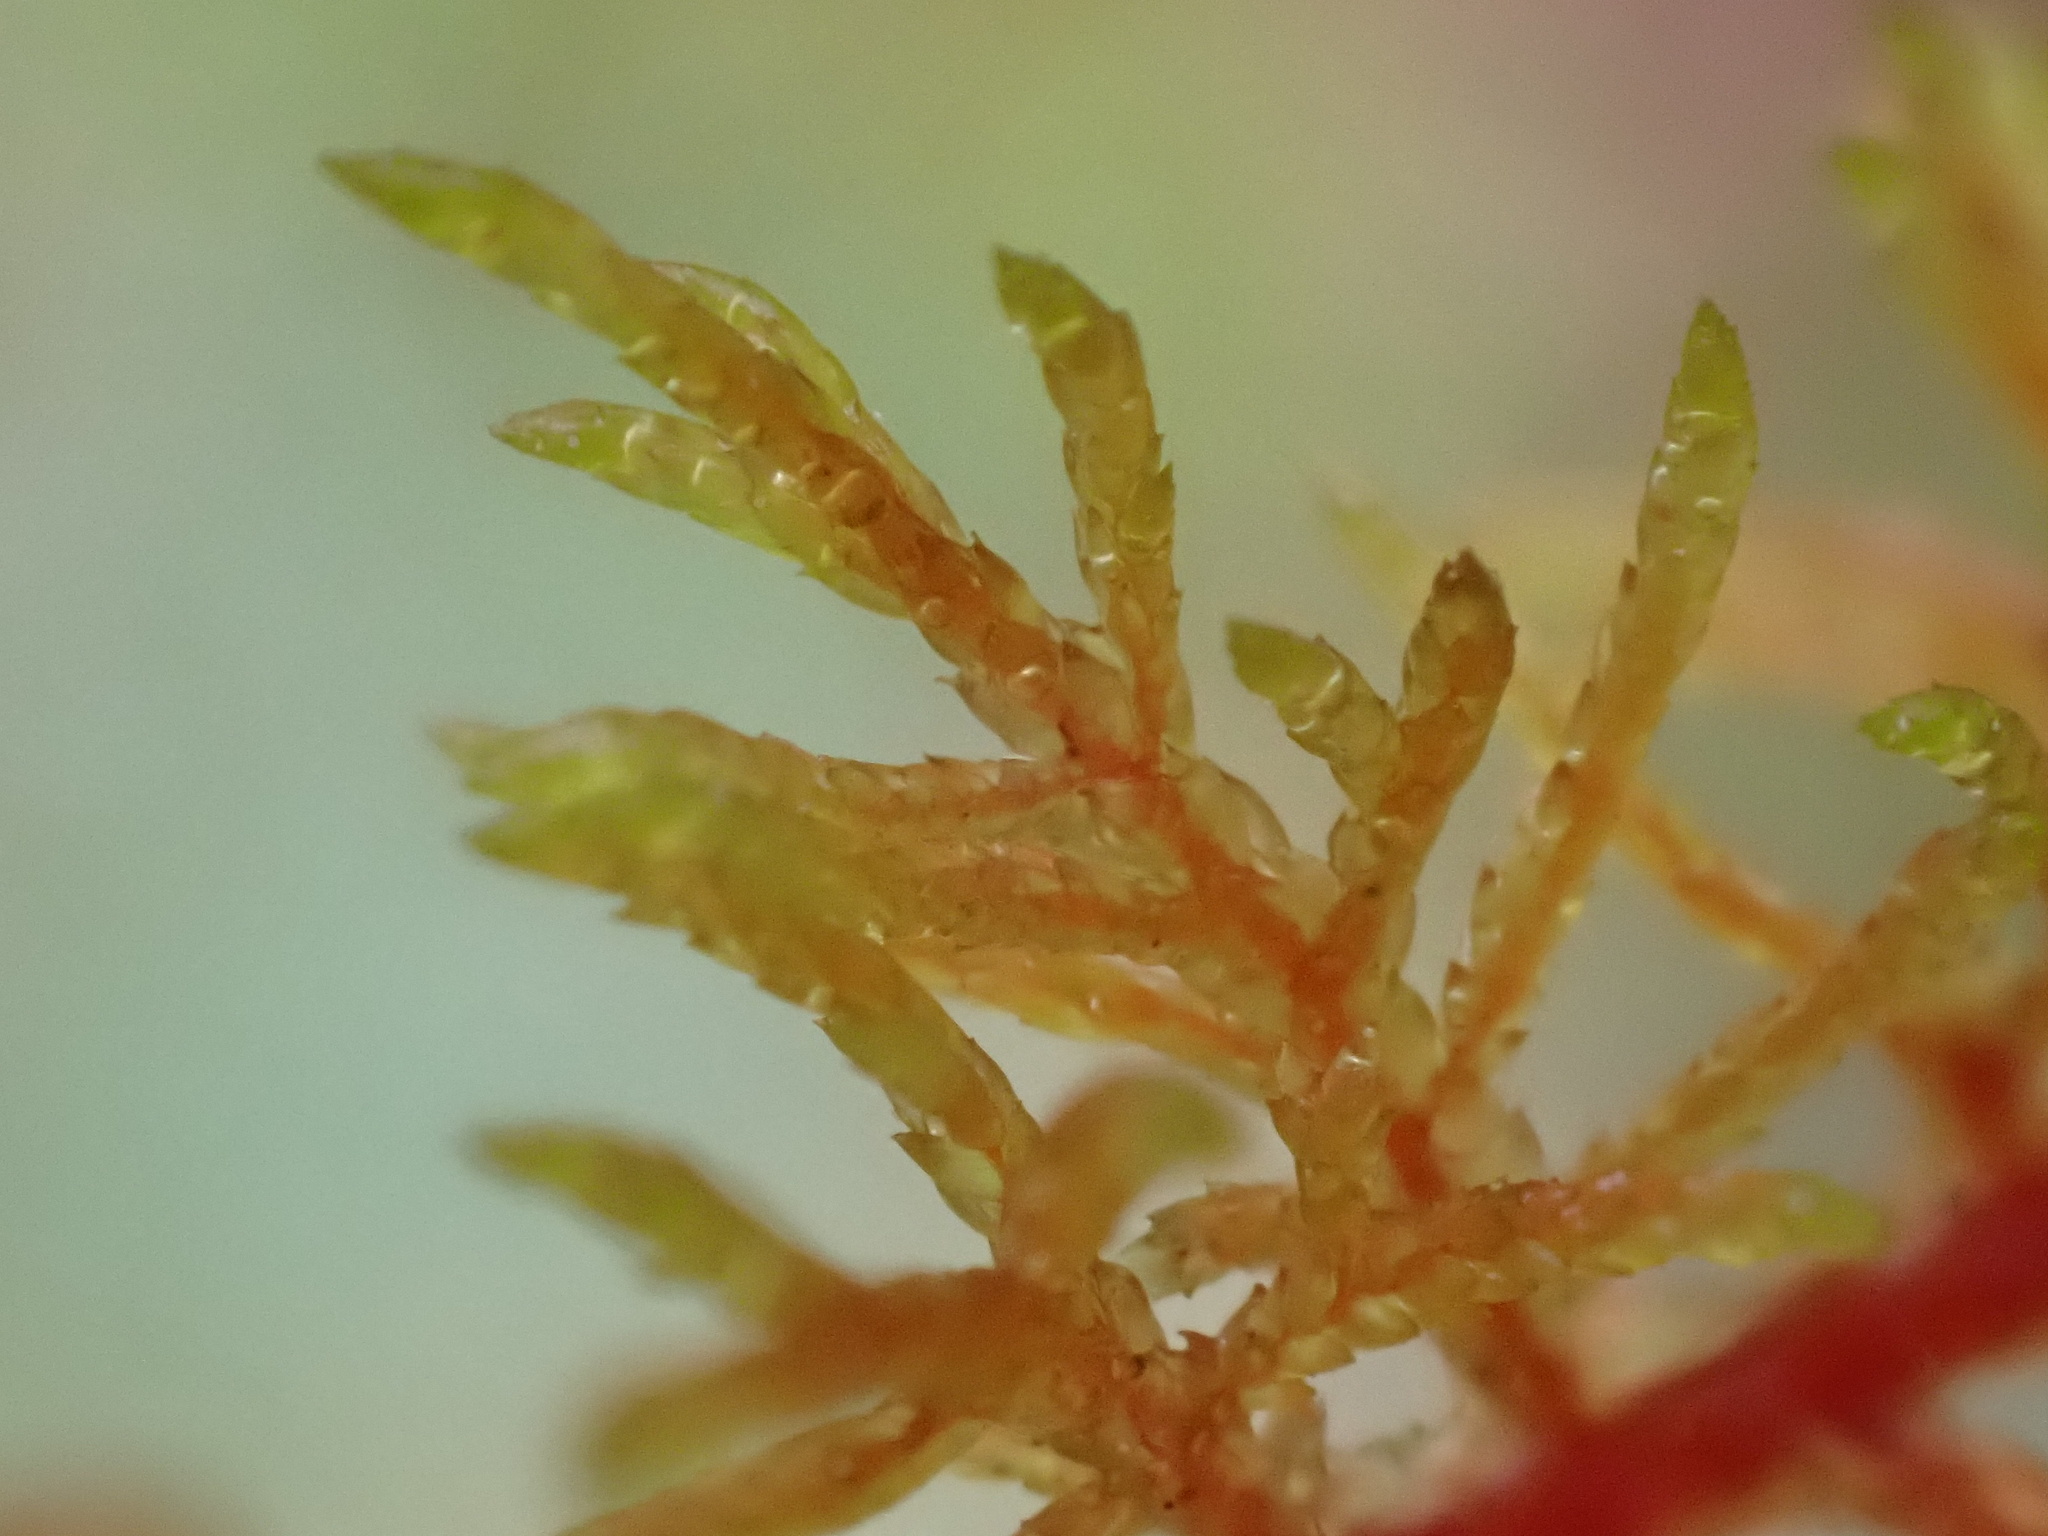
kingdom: Plantae
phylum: Bryophyta
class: Bryopsida
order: Hypnales
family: Hylocomiaceae
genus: Hylocomium
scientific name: Hylocomium splendens
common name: Stairstep moss
